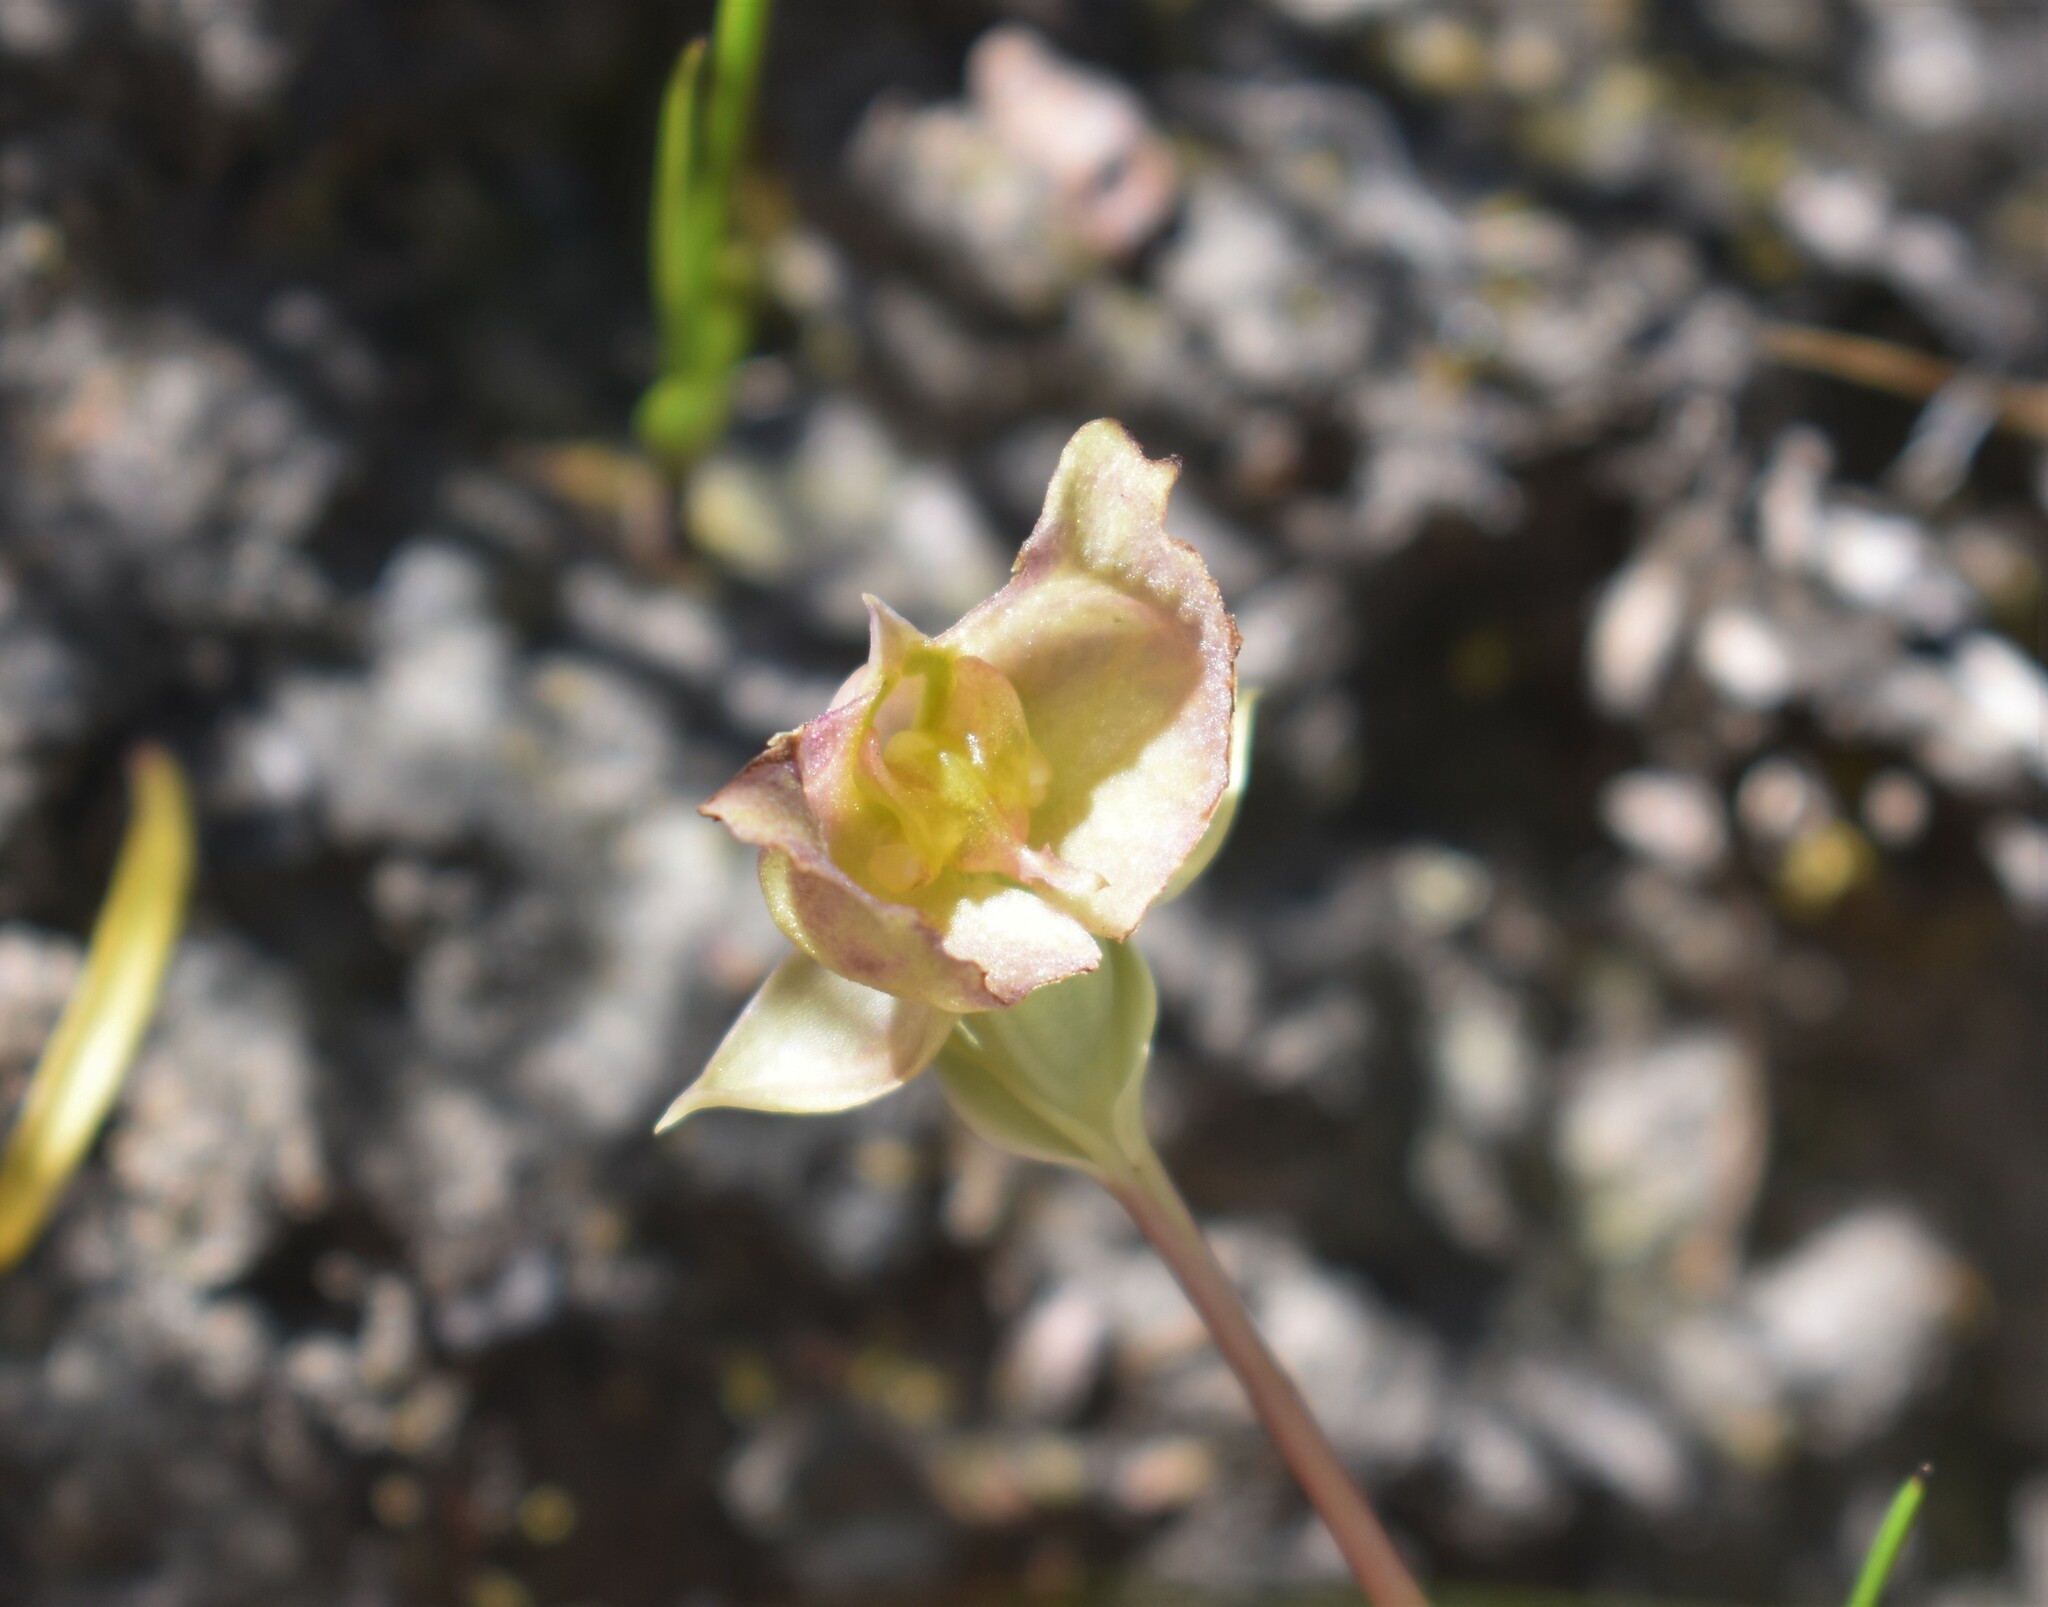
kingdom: Plantae
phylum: Tracheophyta
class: Liliopsida
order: Asparagales
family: Orchidaceae
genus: Pterygodium
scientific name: Pterygodium platypetalum
